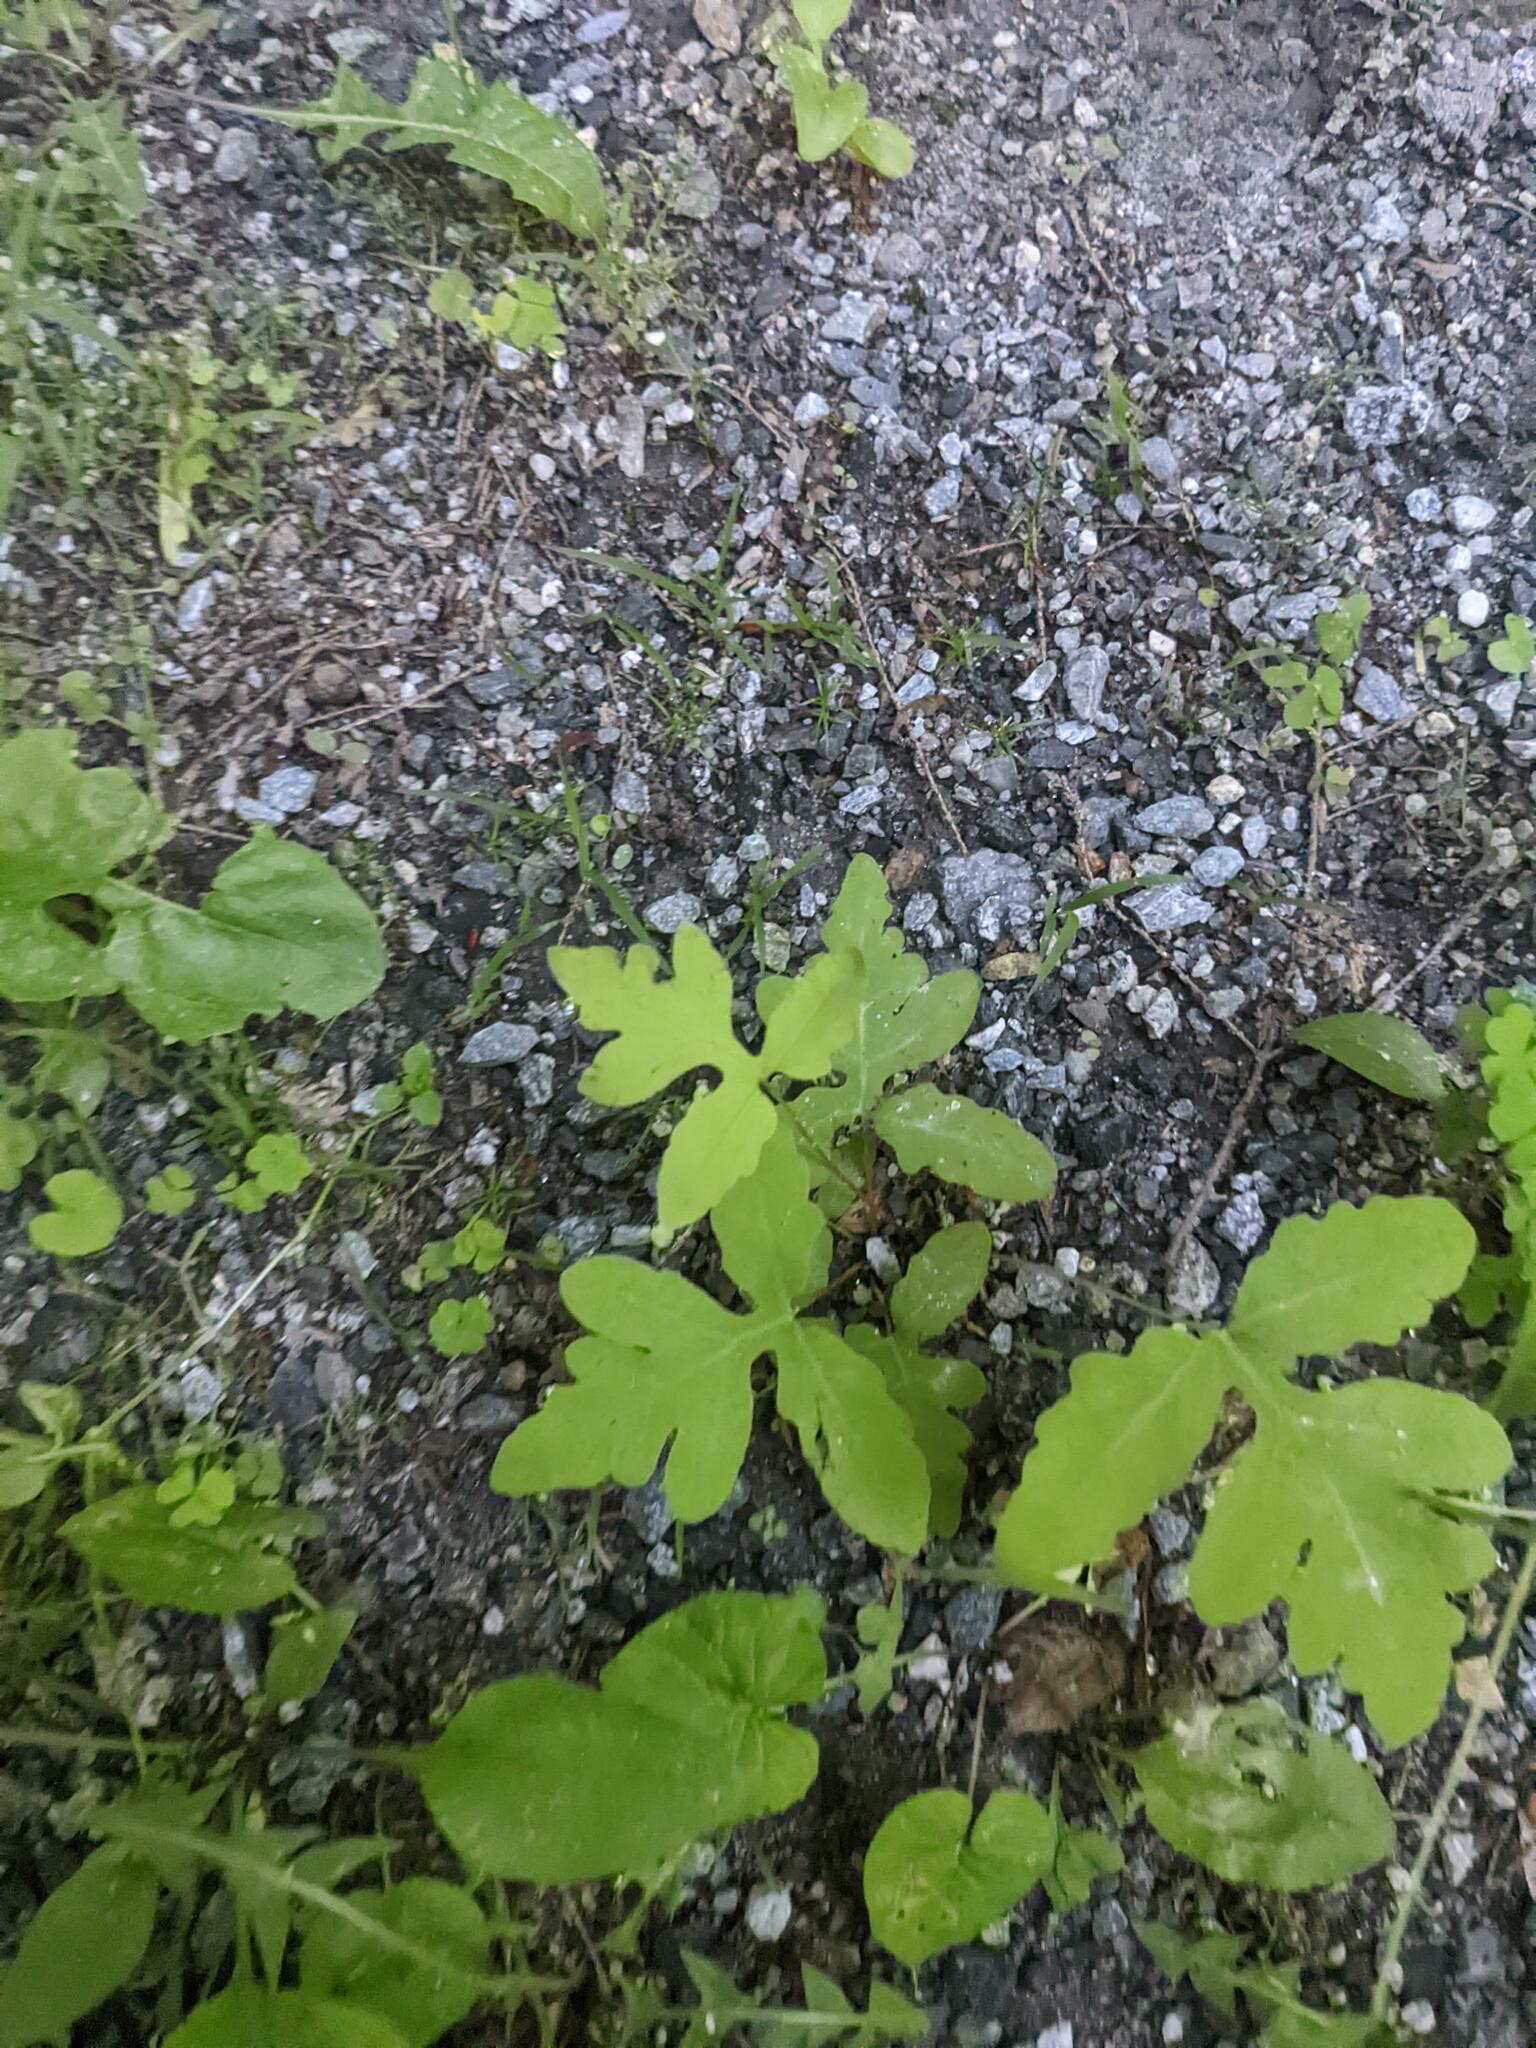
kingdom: Plantae
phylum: Tracheophyta
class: Polypodiopsida
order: Polypodiales
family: Onocleaceae
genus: Onoclea
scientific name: Onoclea sensibilis
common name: Sensitive fern
